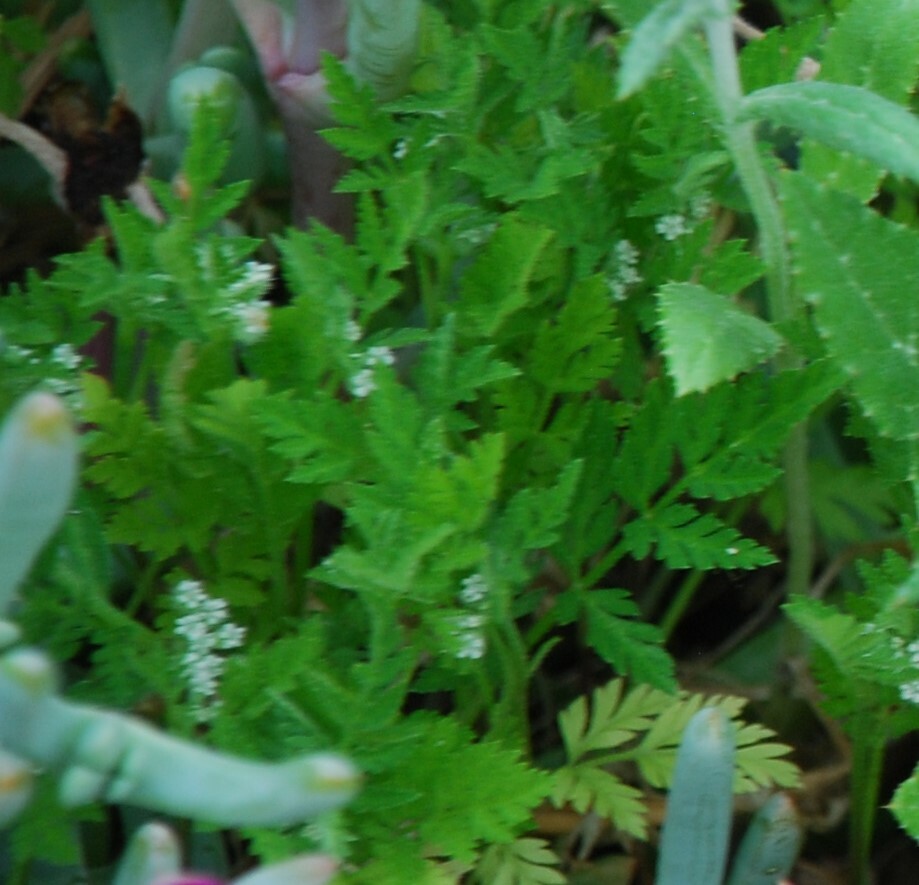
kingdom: Plantae
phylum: Tracheophyta
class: Magnoliopsida
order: Apiales
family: Apiaceae
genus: Torilis
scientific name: Torilis nodosa
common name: Knotted hedge-parsley
